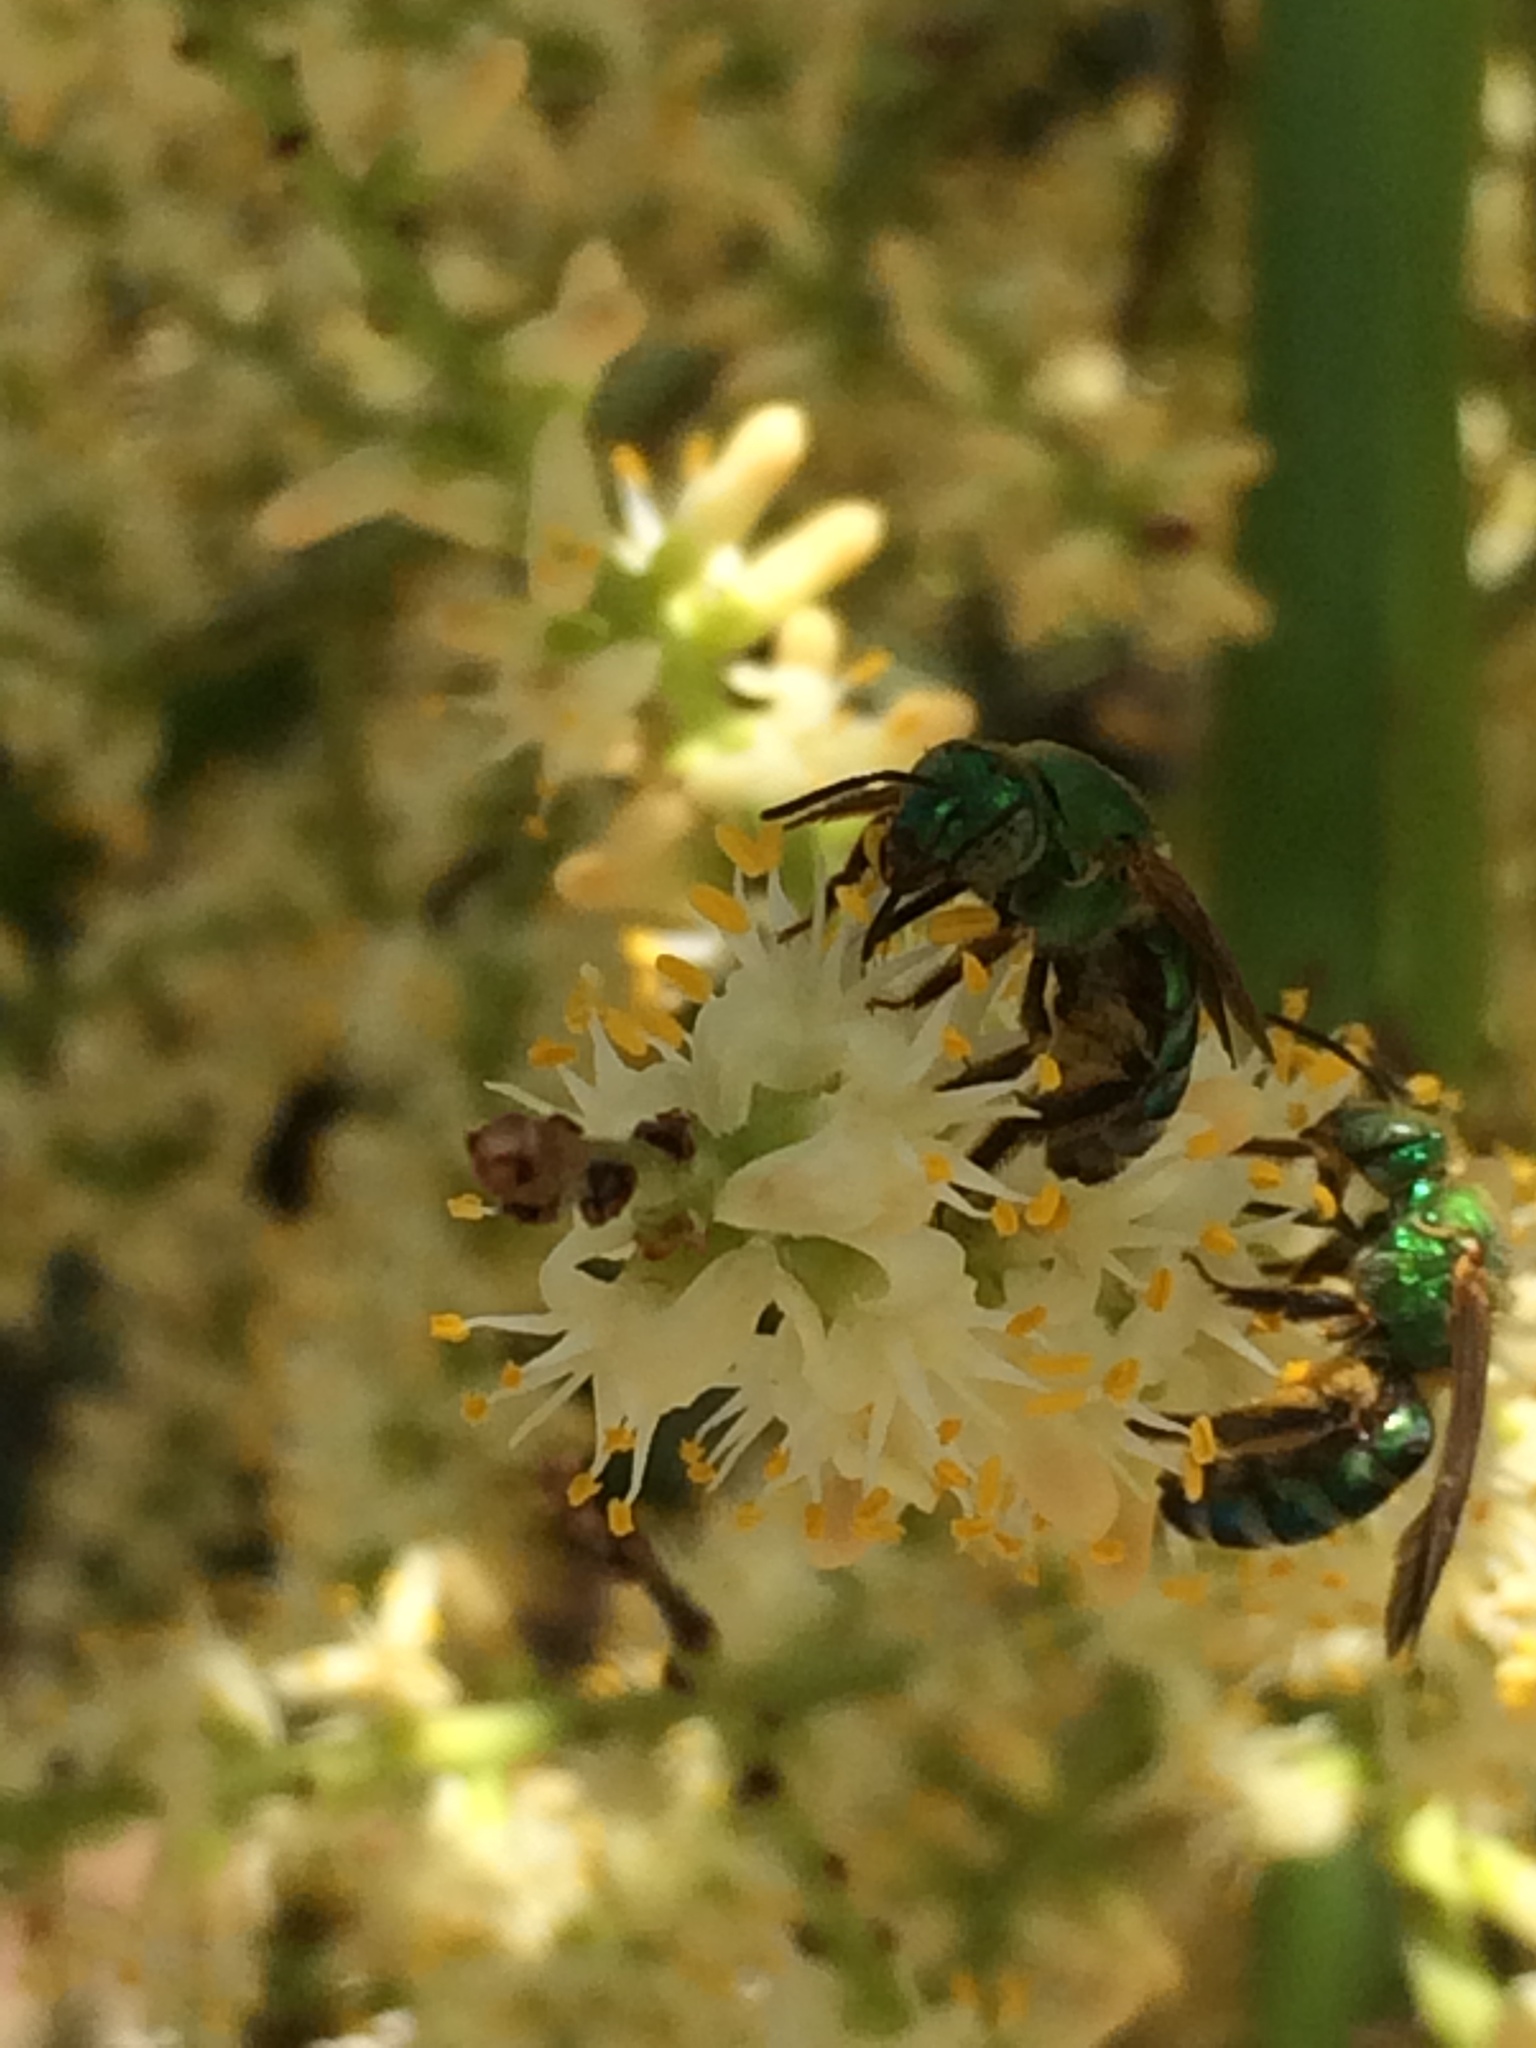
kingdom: Animalia
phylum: Arthropoda
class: Insecta
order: Hymenoptera
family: Halictidae
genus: Agapostemon
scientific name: Agapostemon splendens
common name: Brown-winged striped sweat bee
